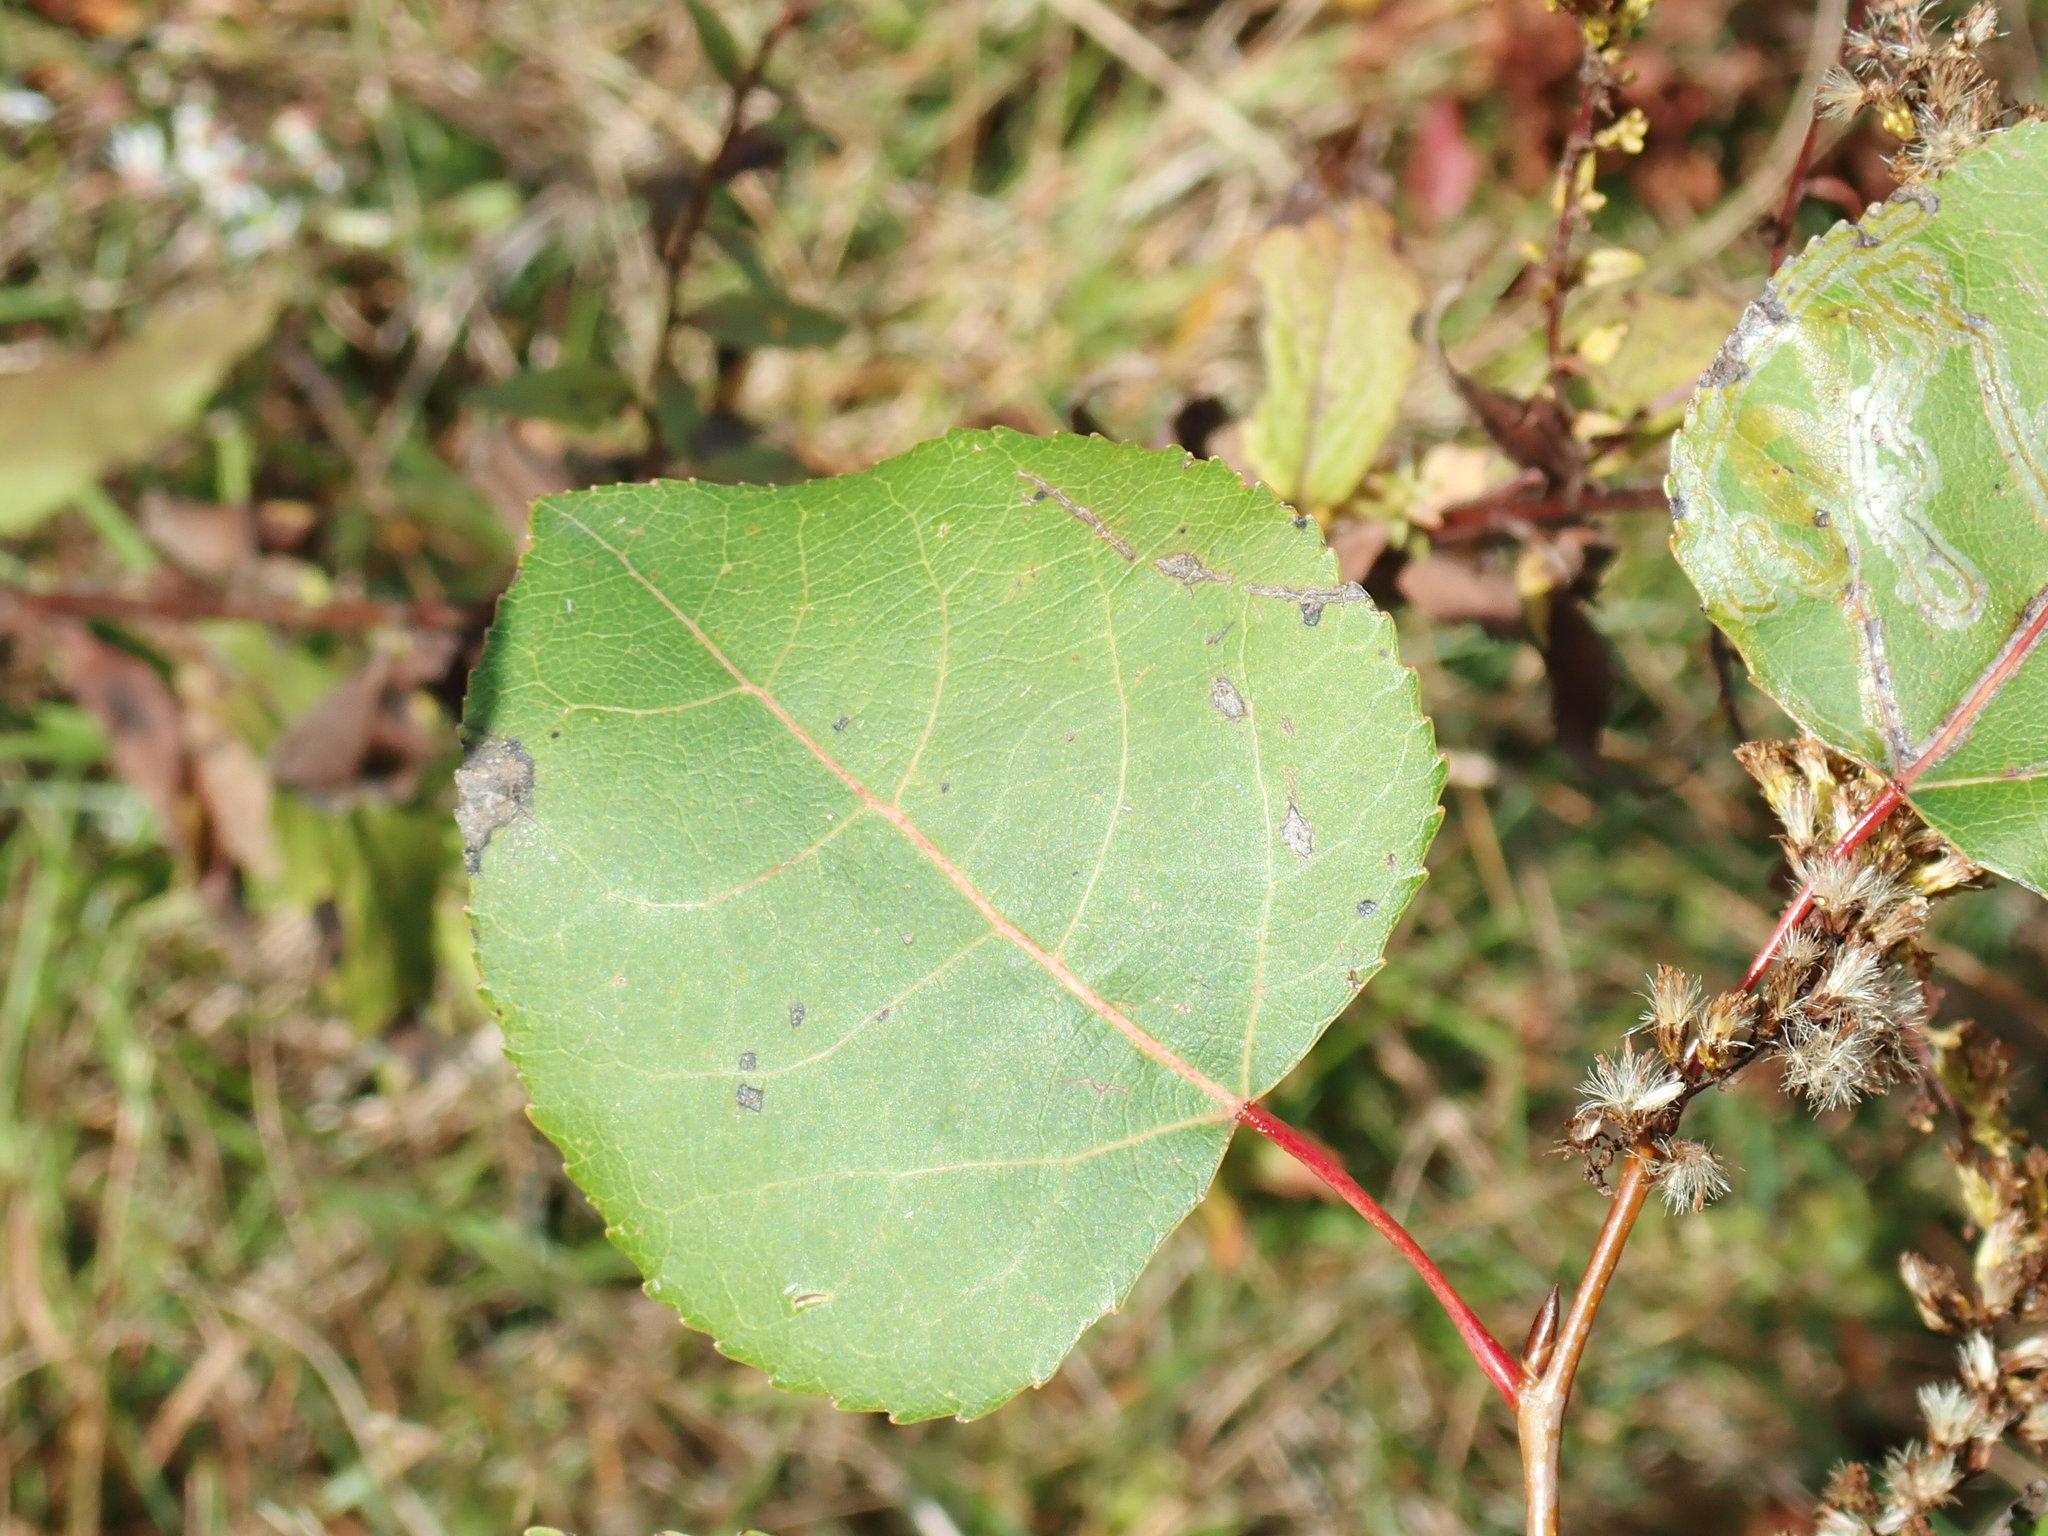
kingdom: Plantae
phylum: Tracheophyta
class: Magnoliopsida
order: Malpighiales
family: Salicaceae
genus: Populus
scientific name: Populus tremuloides
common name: Quaking aspen
